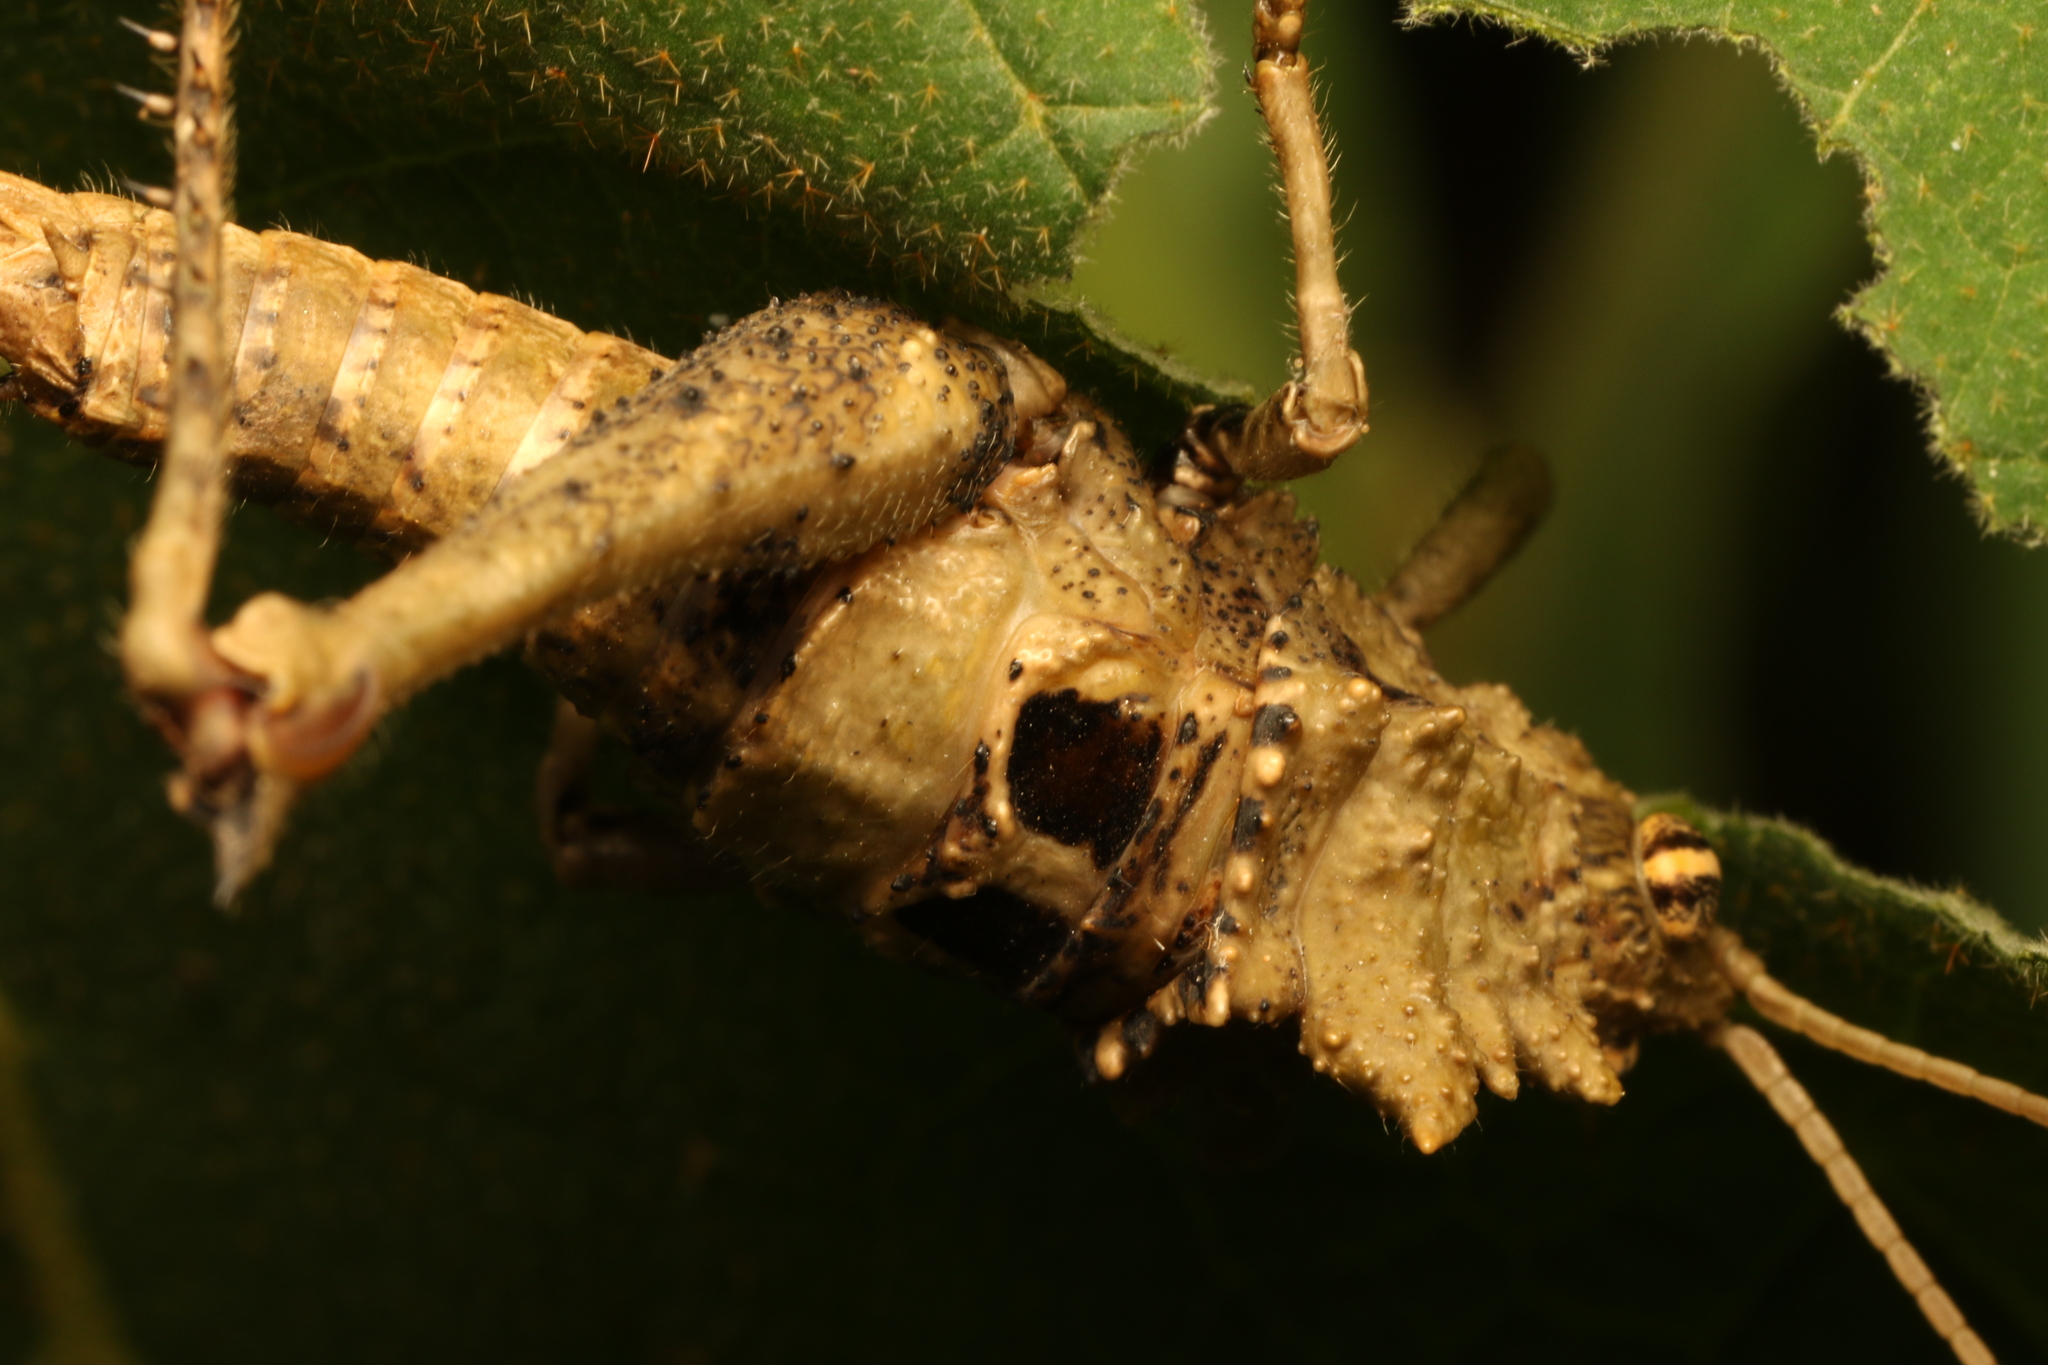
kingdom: Animalia
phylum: Arthropoda
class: Insecta
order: Orthoptera
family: Acrididae
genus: Pycnosarcus
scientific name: Pycnosarcus atavus
